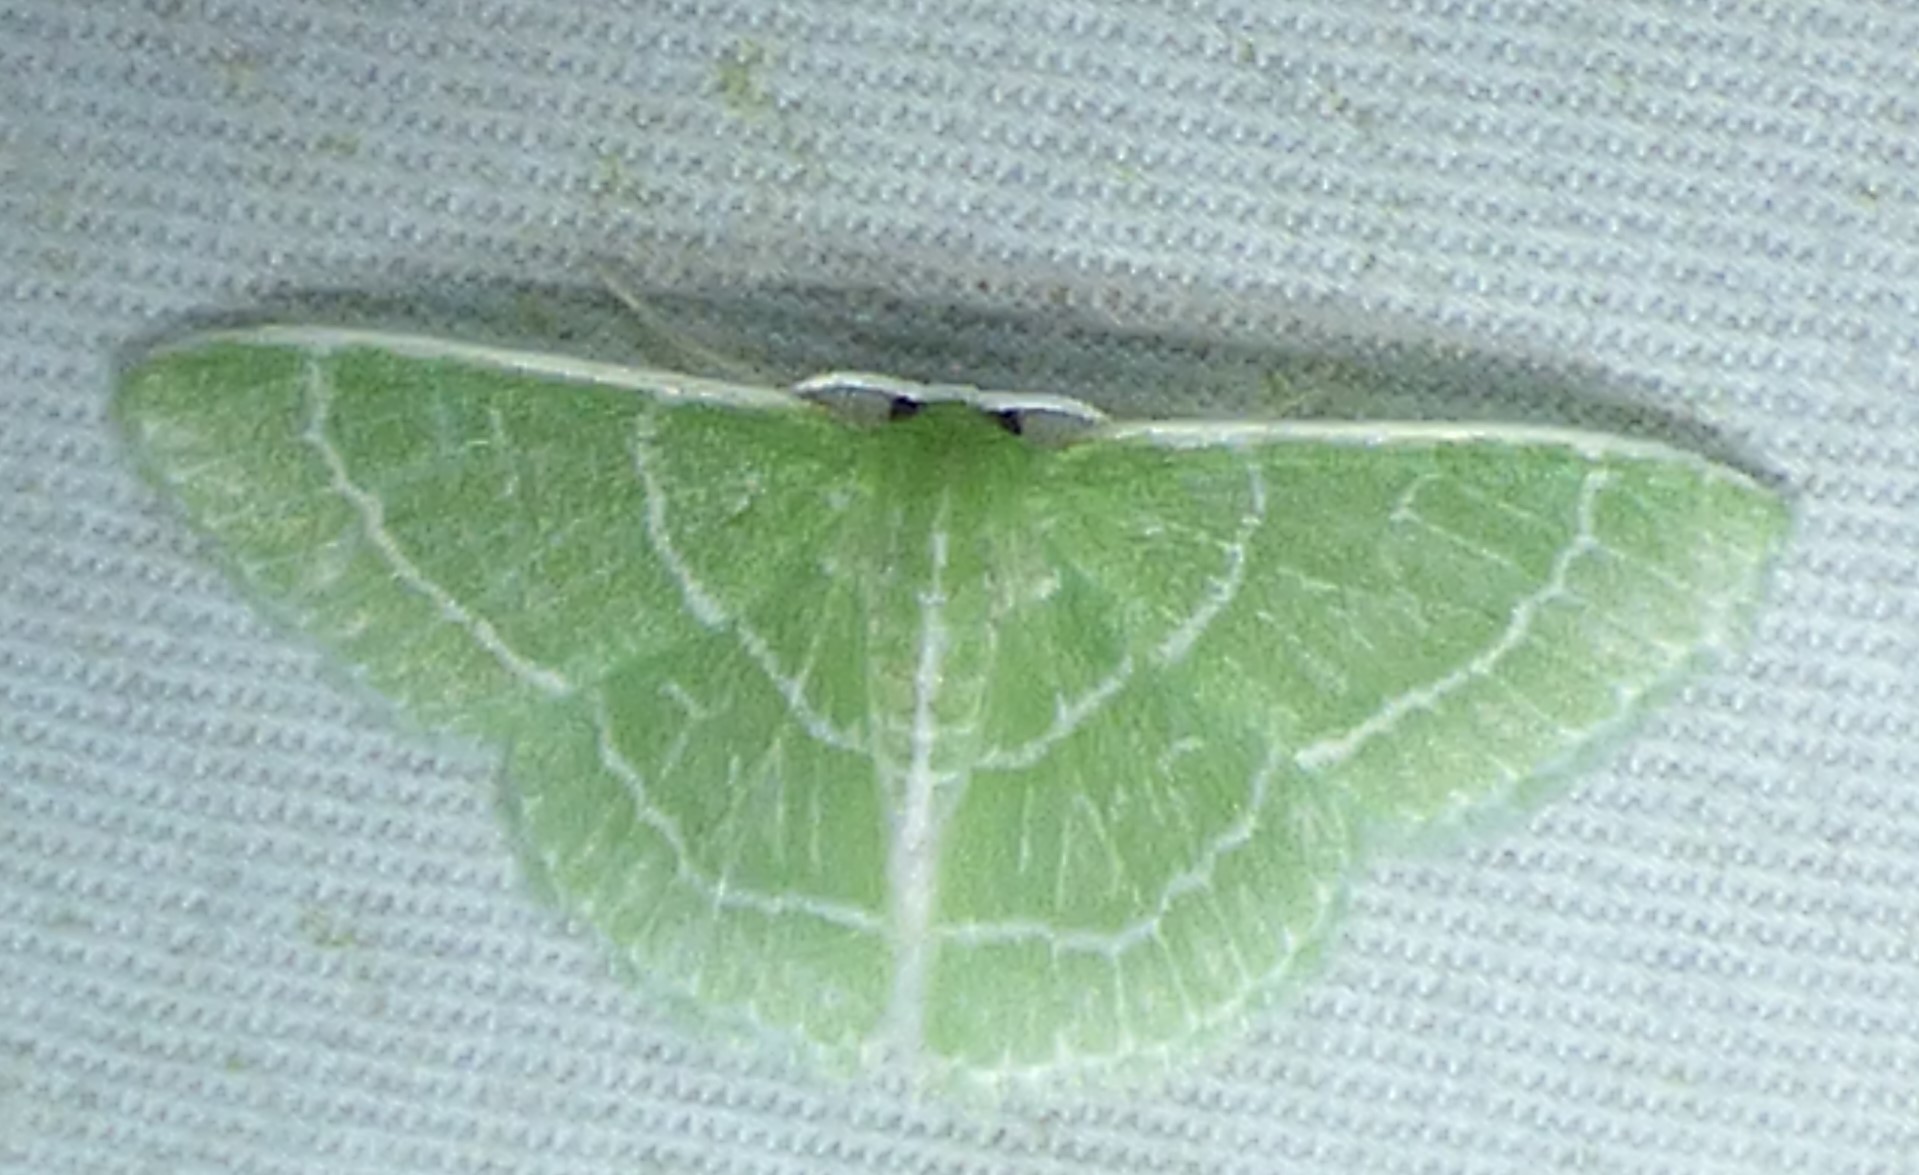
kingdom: Animalia
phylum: Arthropoda
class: Insecta
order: Lepidoptera
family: Geometridae
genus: Synchlora
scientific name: Synchlora aerata
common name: Wavy-lined emerald
